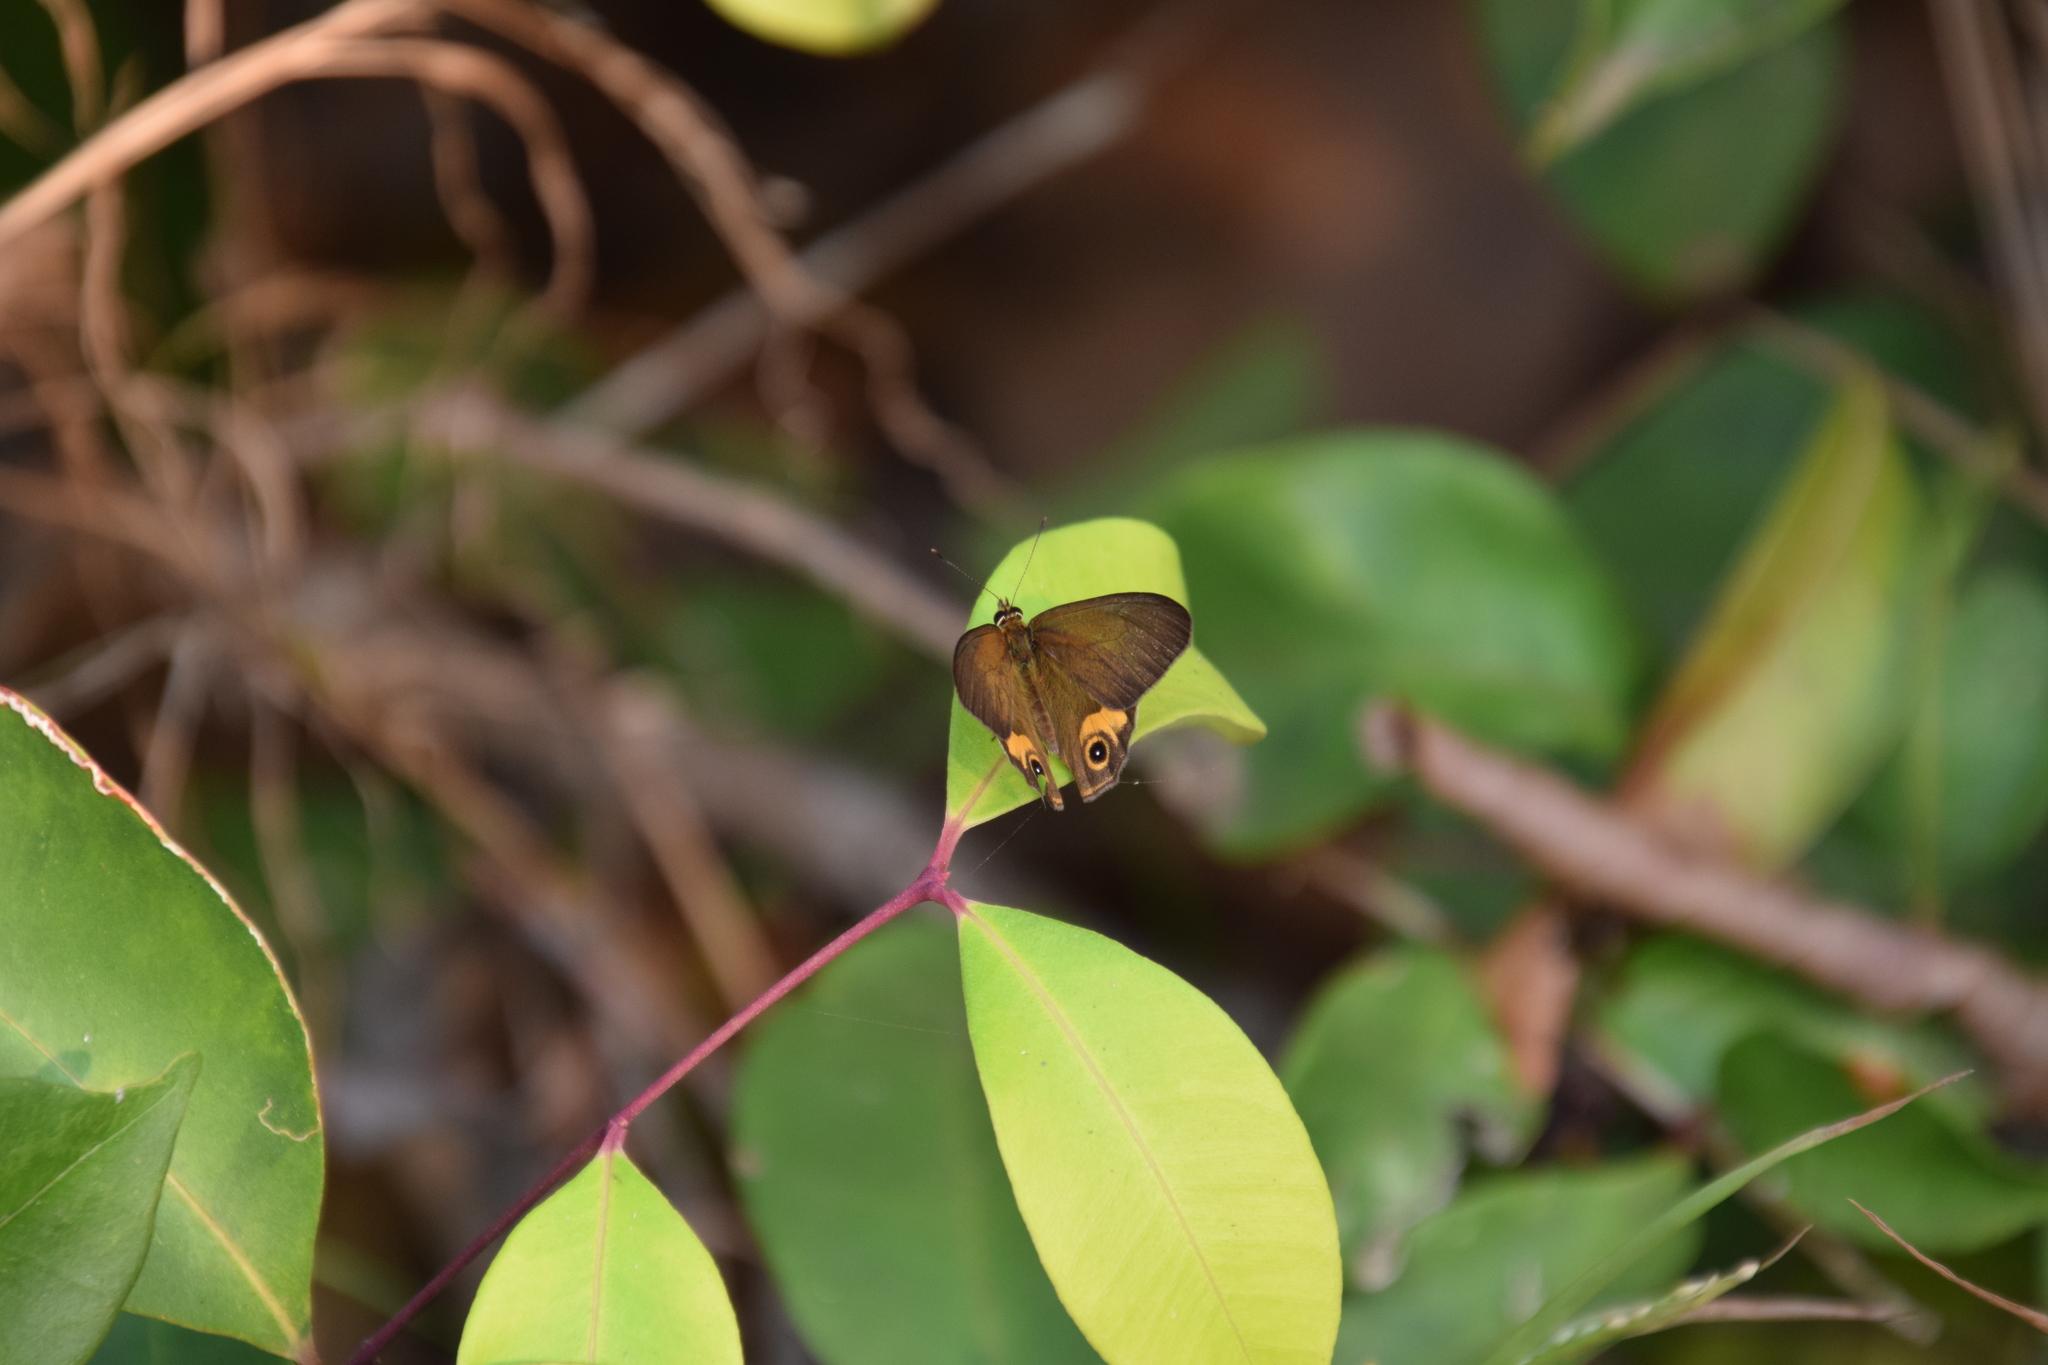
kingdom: Animalia
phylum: Arthropoda
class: Insecta
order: Lepidoptera
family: Nymphalidae
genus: Hypocysta
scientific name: Hypocysta metirius
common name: Brown ringlet
